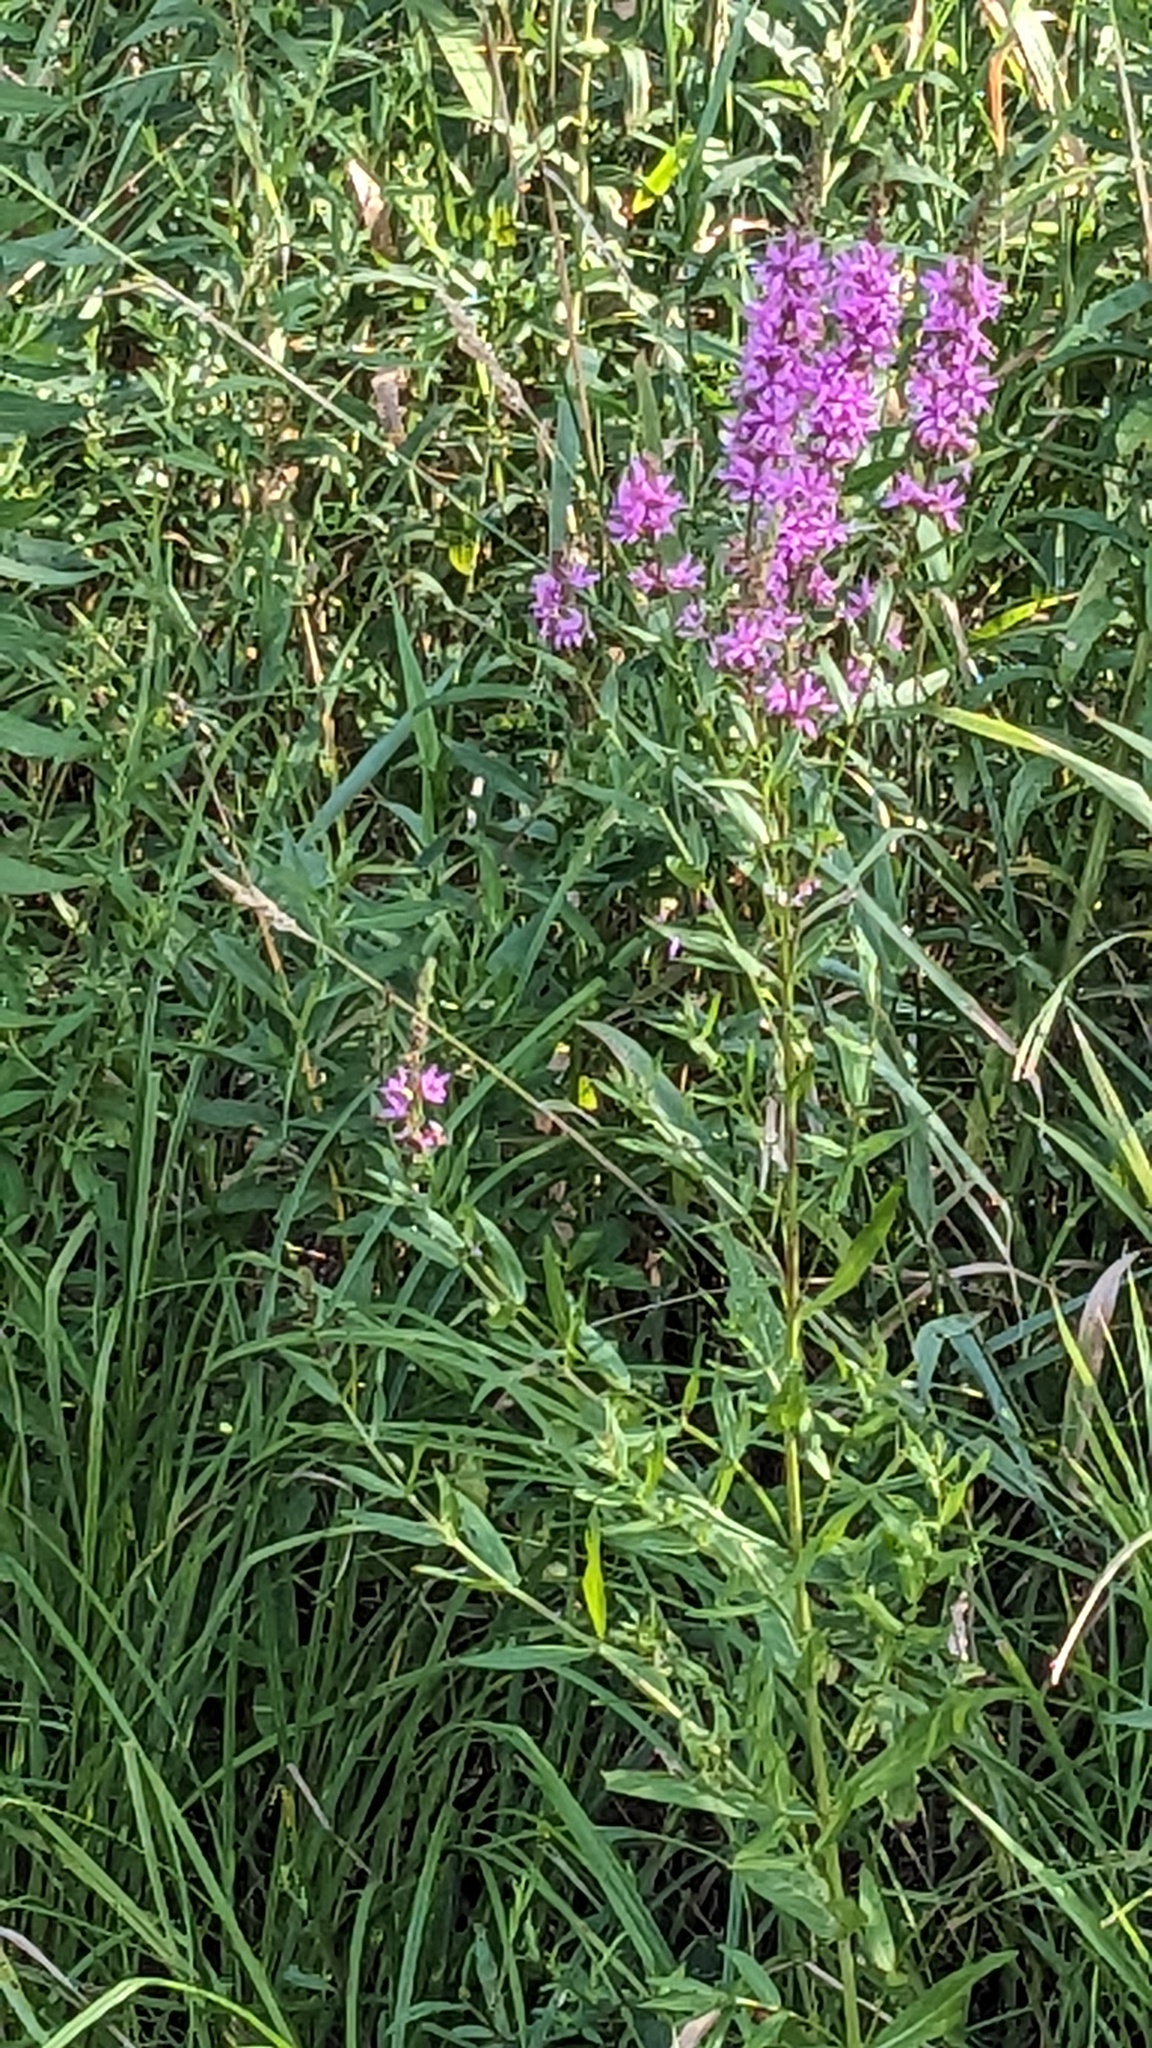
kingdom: Plantae
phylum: Tracheophyta
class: Magnoliopsida
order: Myrtales
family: Lythraceae
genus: Lythrum
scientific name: Lythrum salicaria
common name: Purple loosestrife
